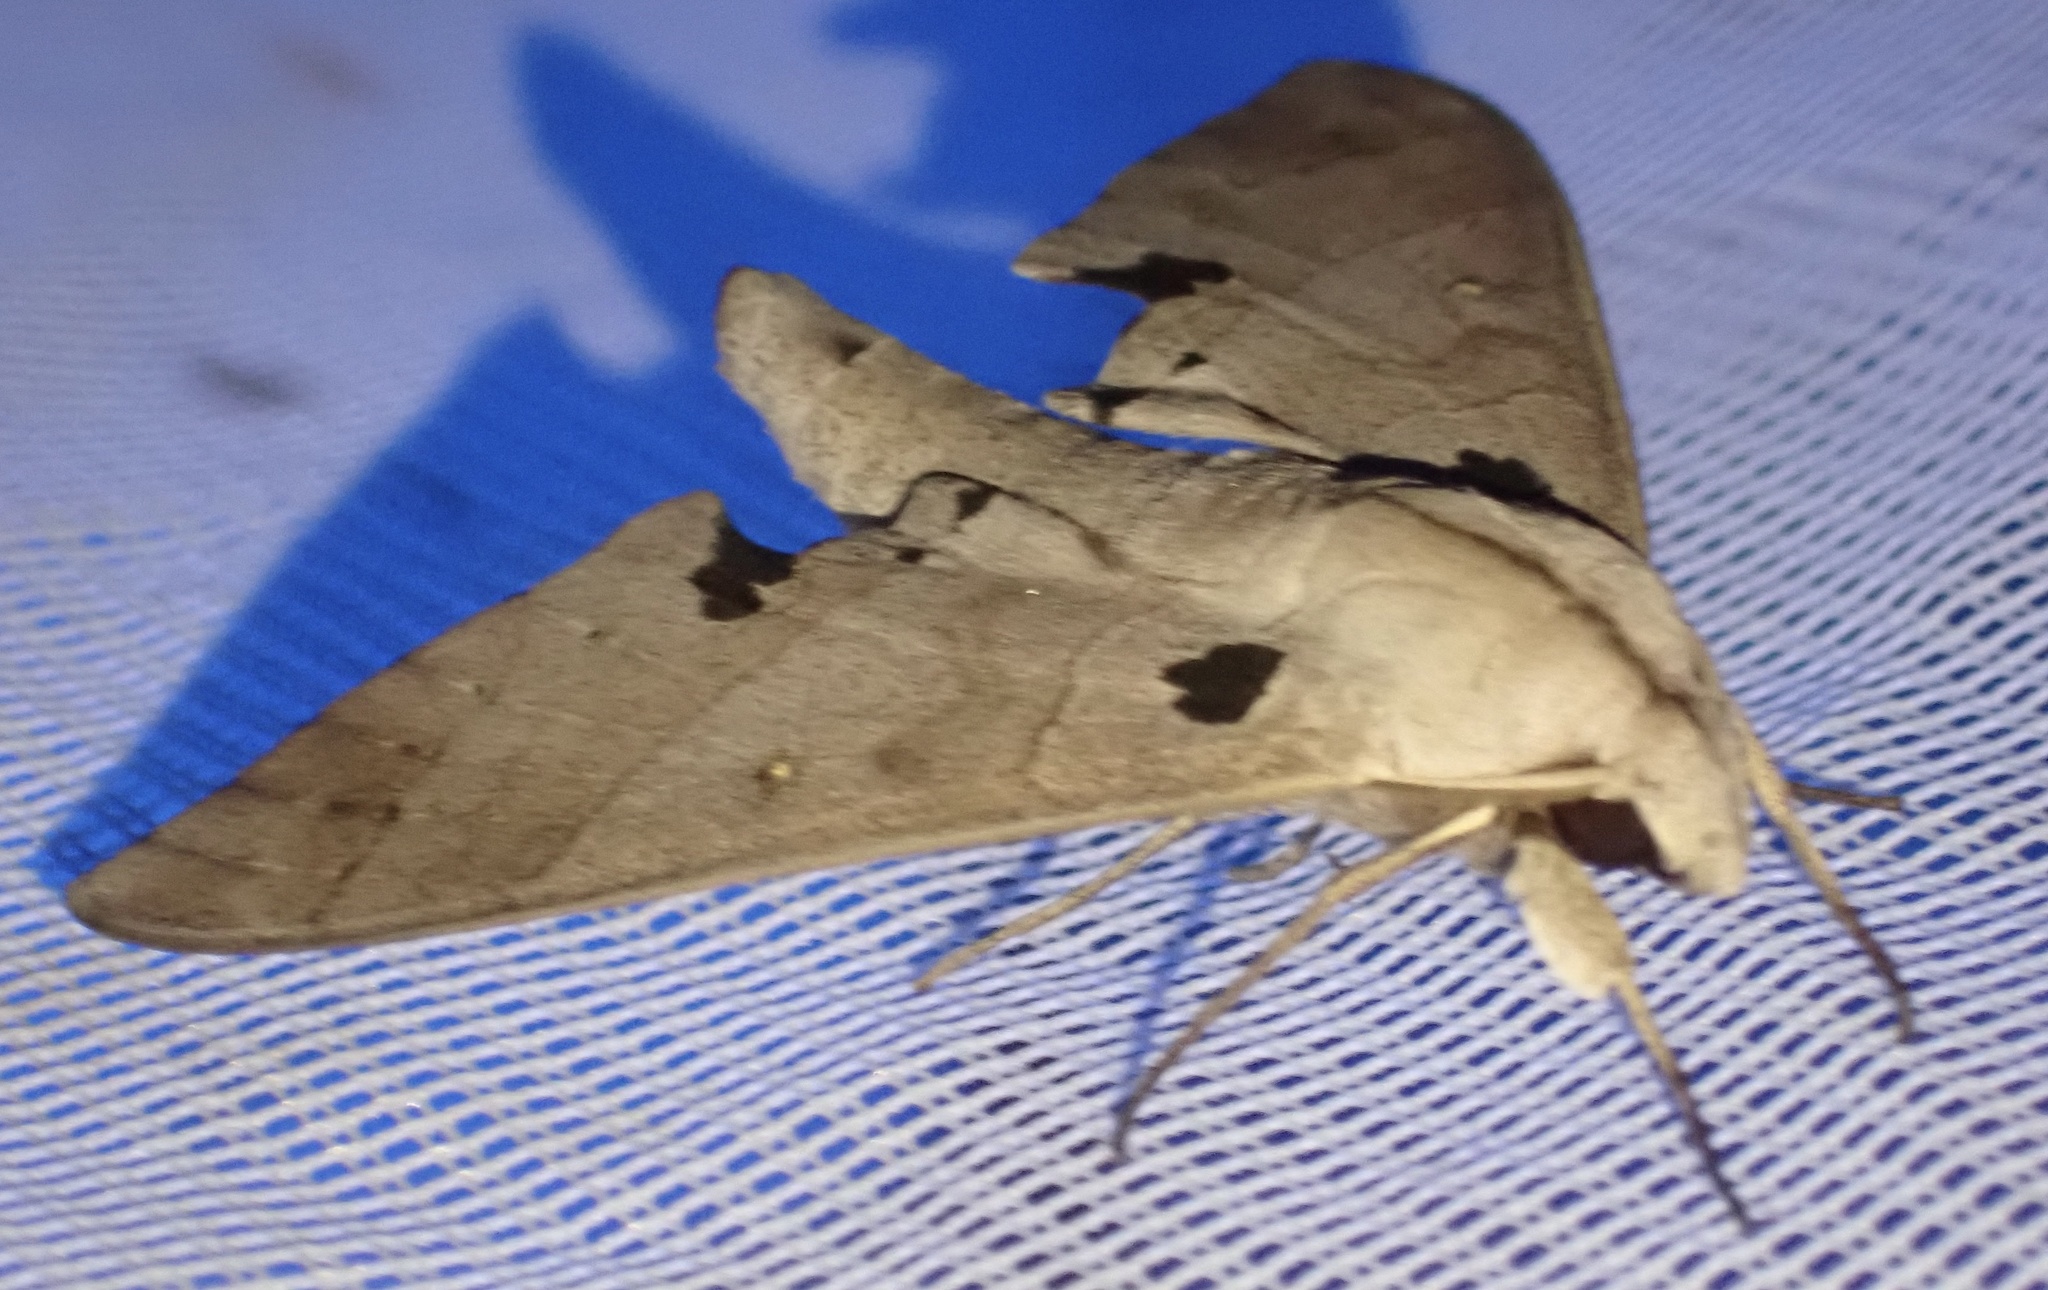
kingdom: Animalia
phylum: Arthropoda
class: Insecta
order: Lepidoptera
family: Sphingidae
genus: Polyptychus
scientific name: Polyptychus carteri
